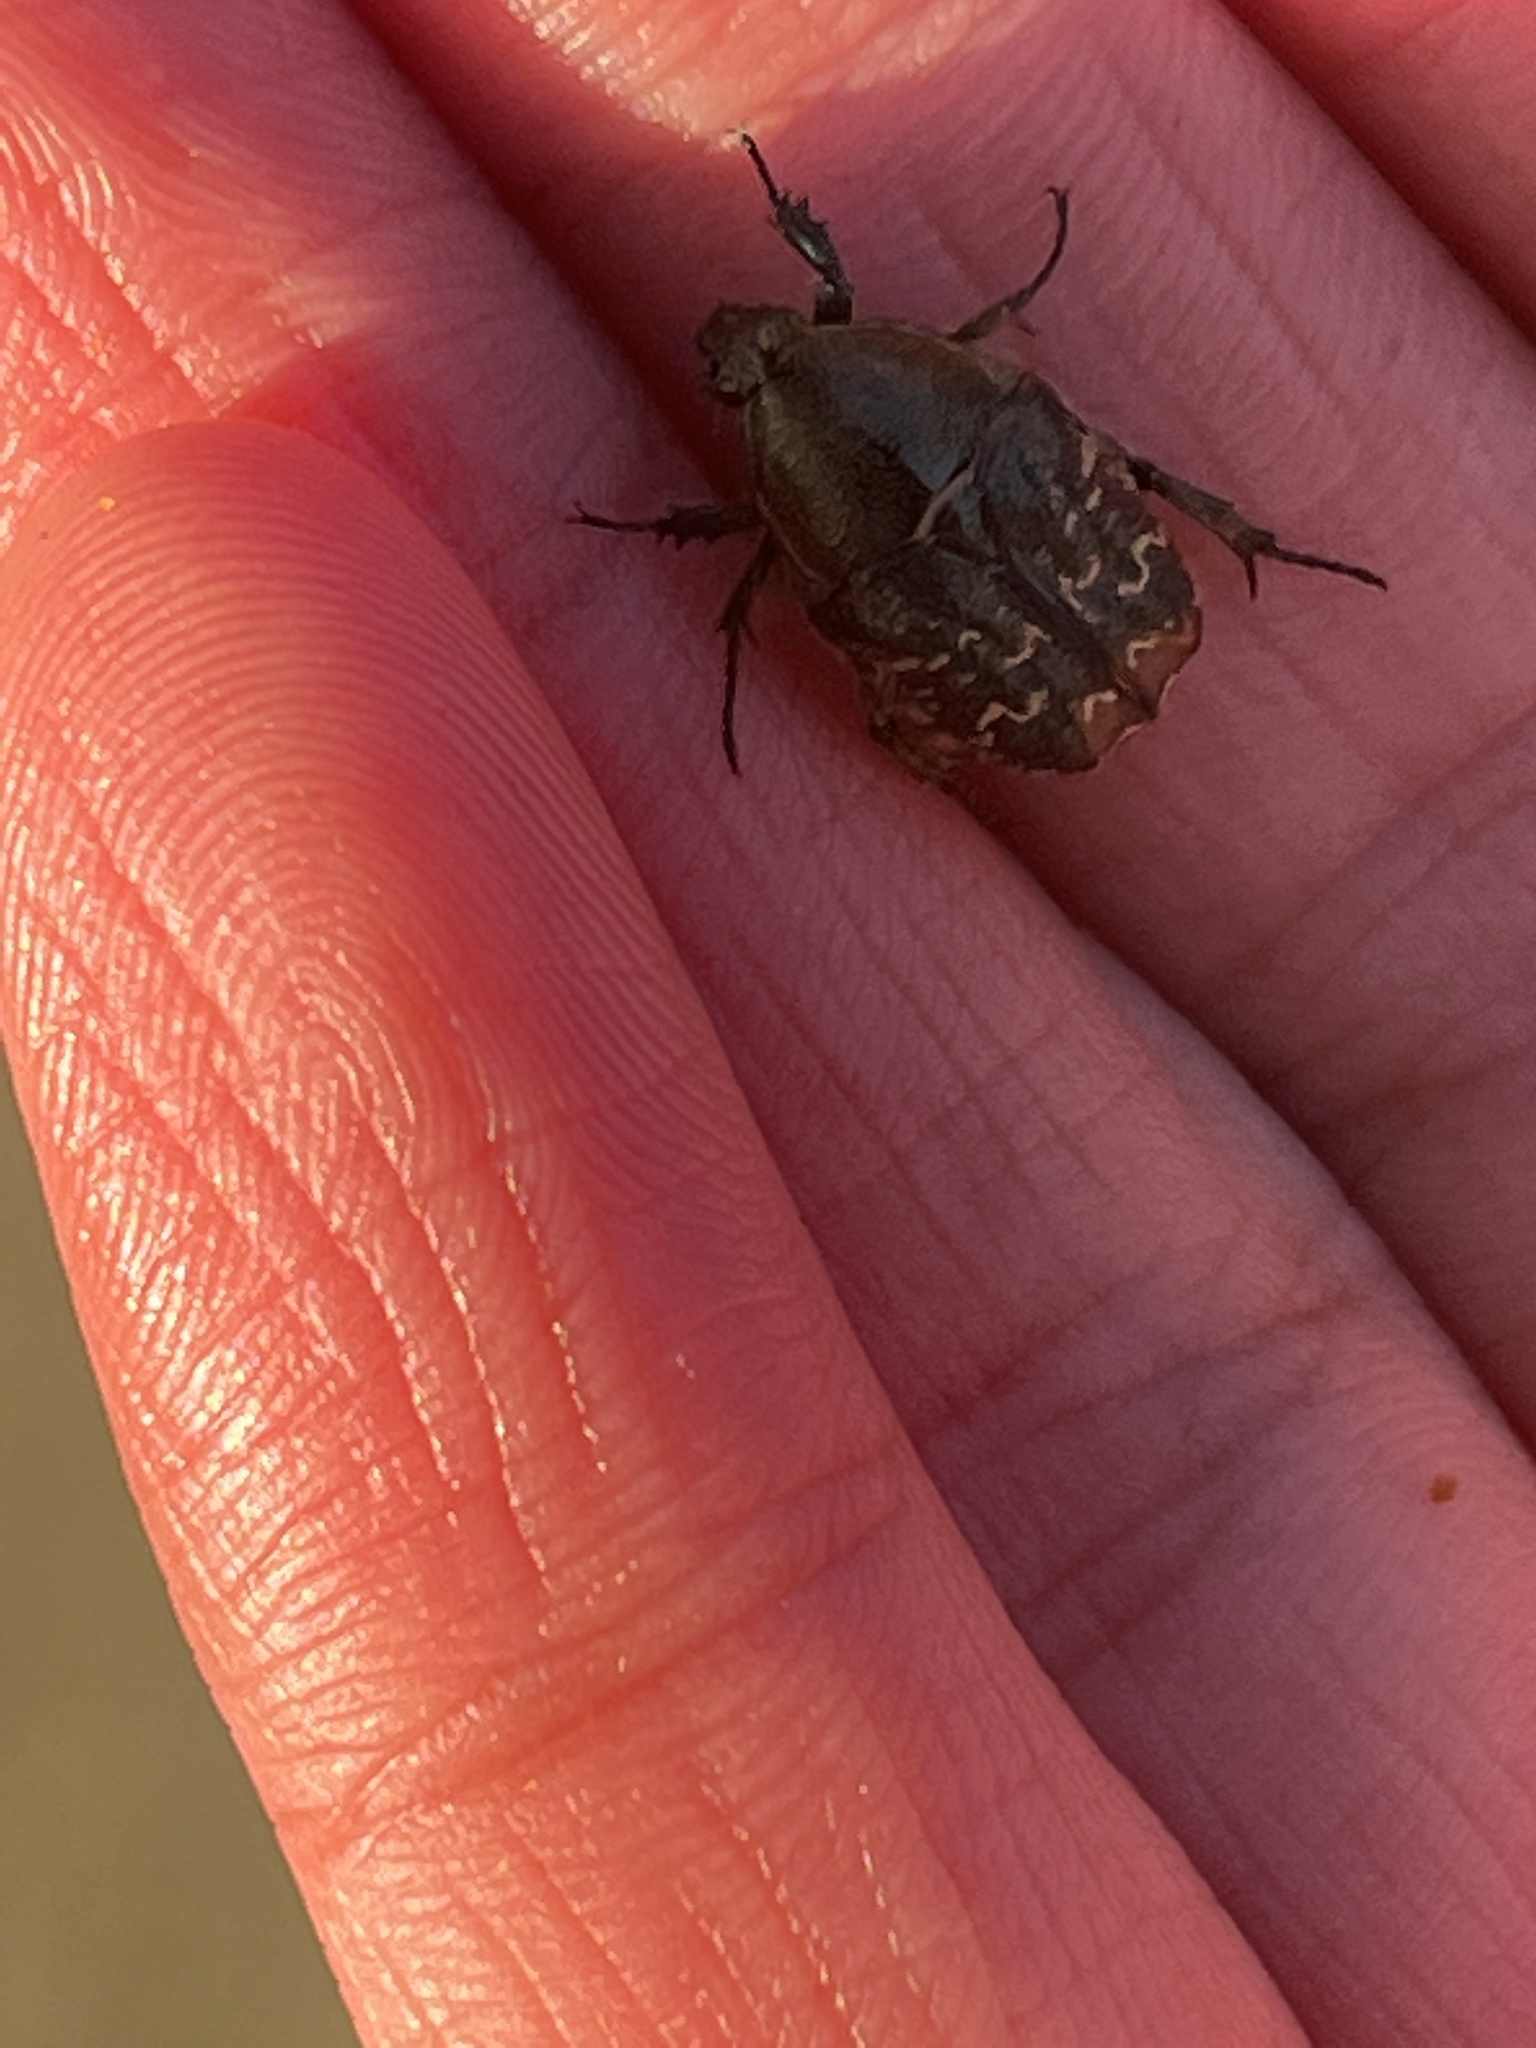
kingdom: Animalia
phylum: Arthropoda
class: Insecta
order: Coleoptera
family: Scarabaeidae
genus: Euphoria
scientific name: Euphoria sepulcralis
